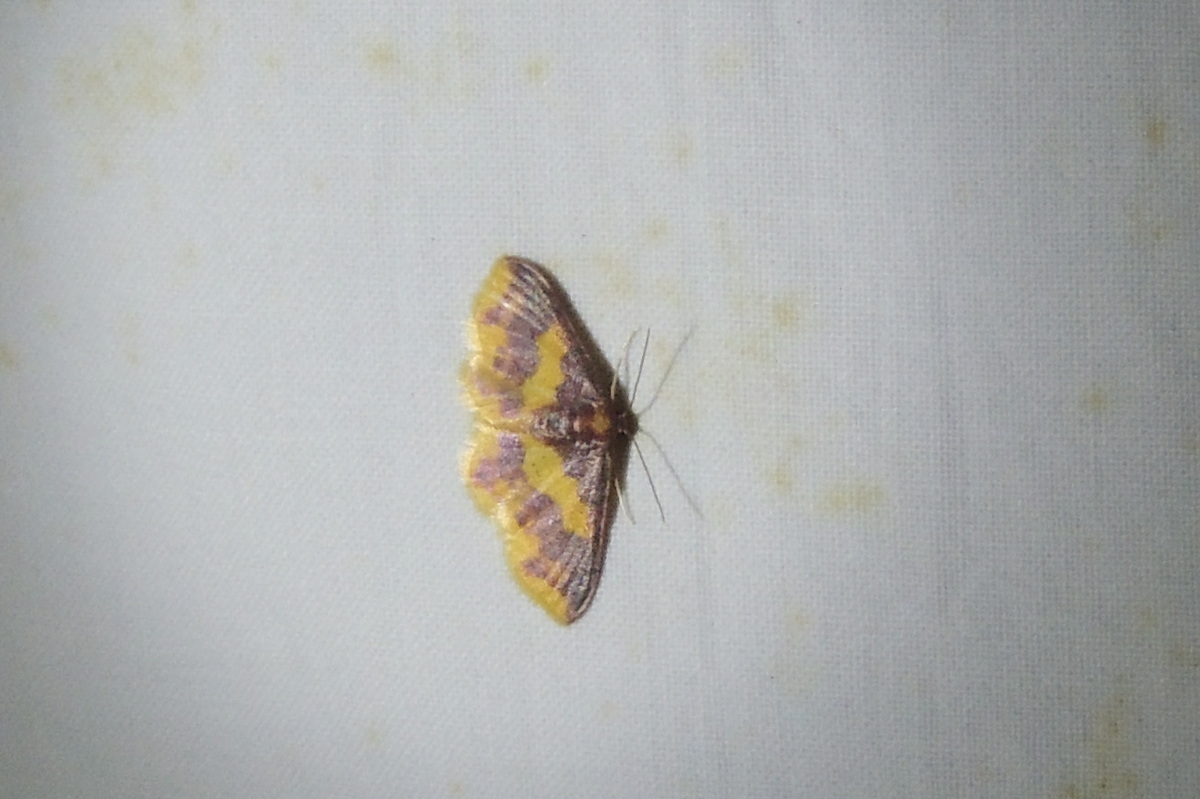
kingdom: Animalia
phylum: Arthropoda
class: Insecta
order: Lepidoptera
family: Geometridae
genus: Lophosis
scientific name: Lophosis labeculata
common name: Stained lophosis moth
